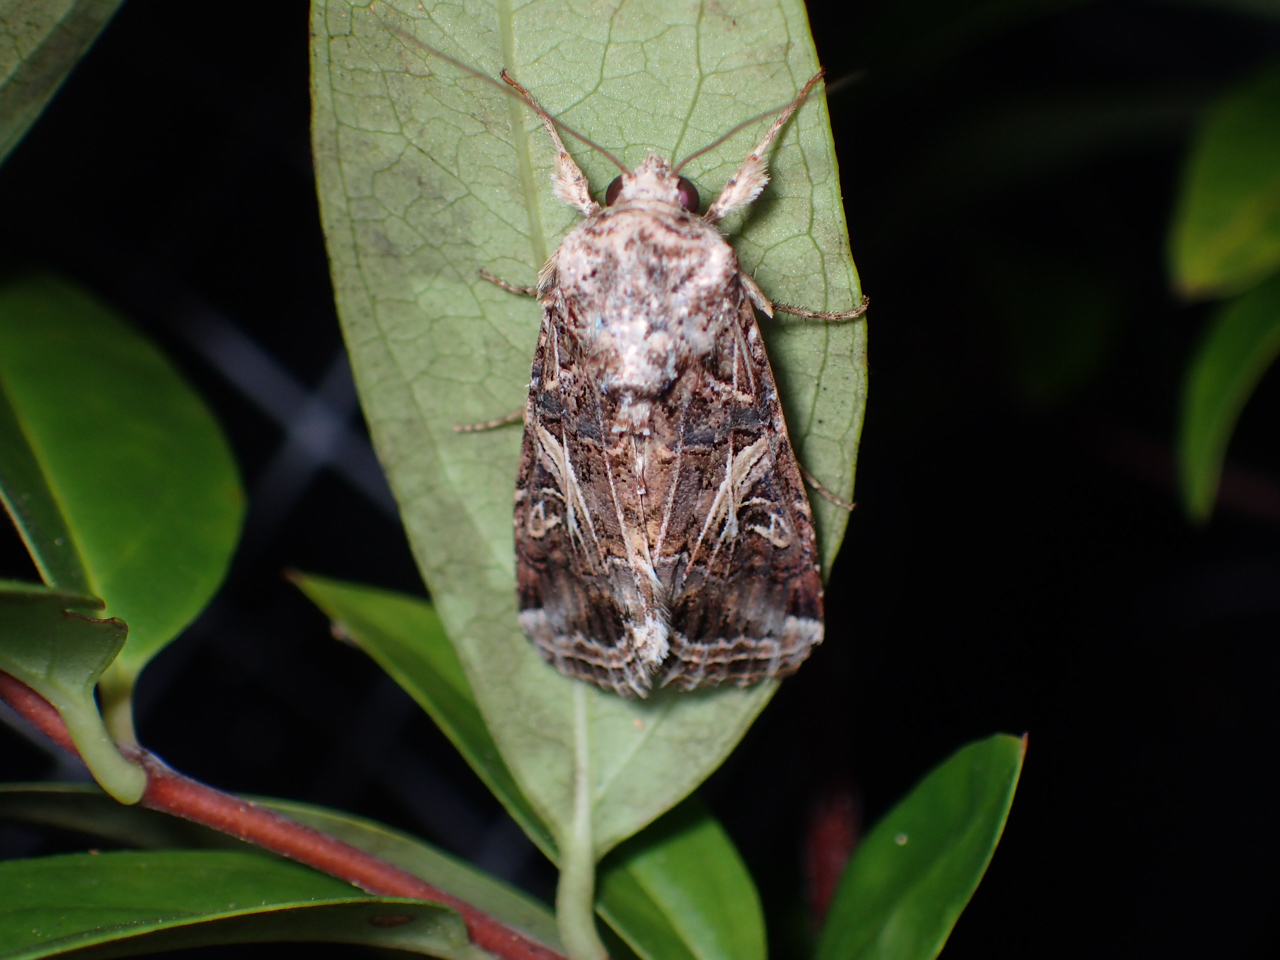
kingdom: Animalia
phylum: Arthropoda
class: Insecta
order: Lepidoptera
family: Noctuidae
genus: Spodoptera
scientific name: Spodoptera ornithogalli
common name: Yellow-striped armyworm
